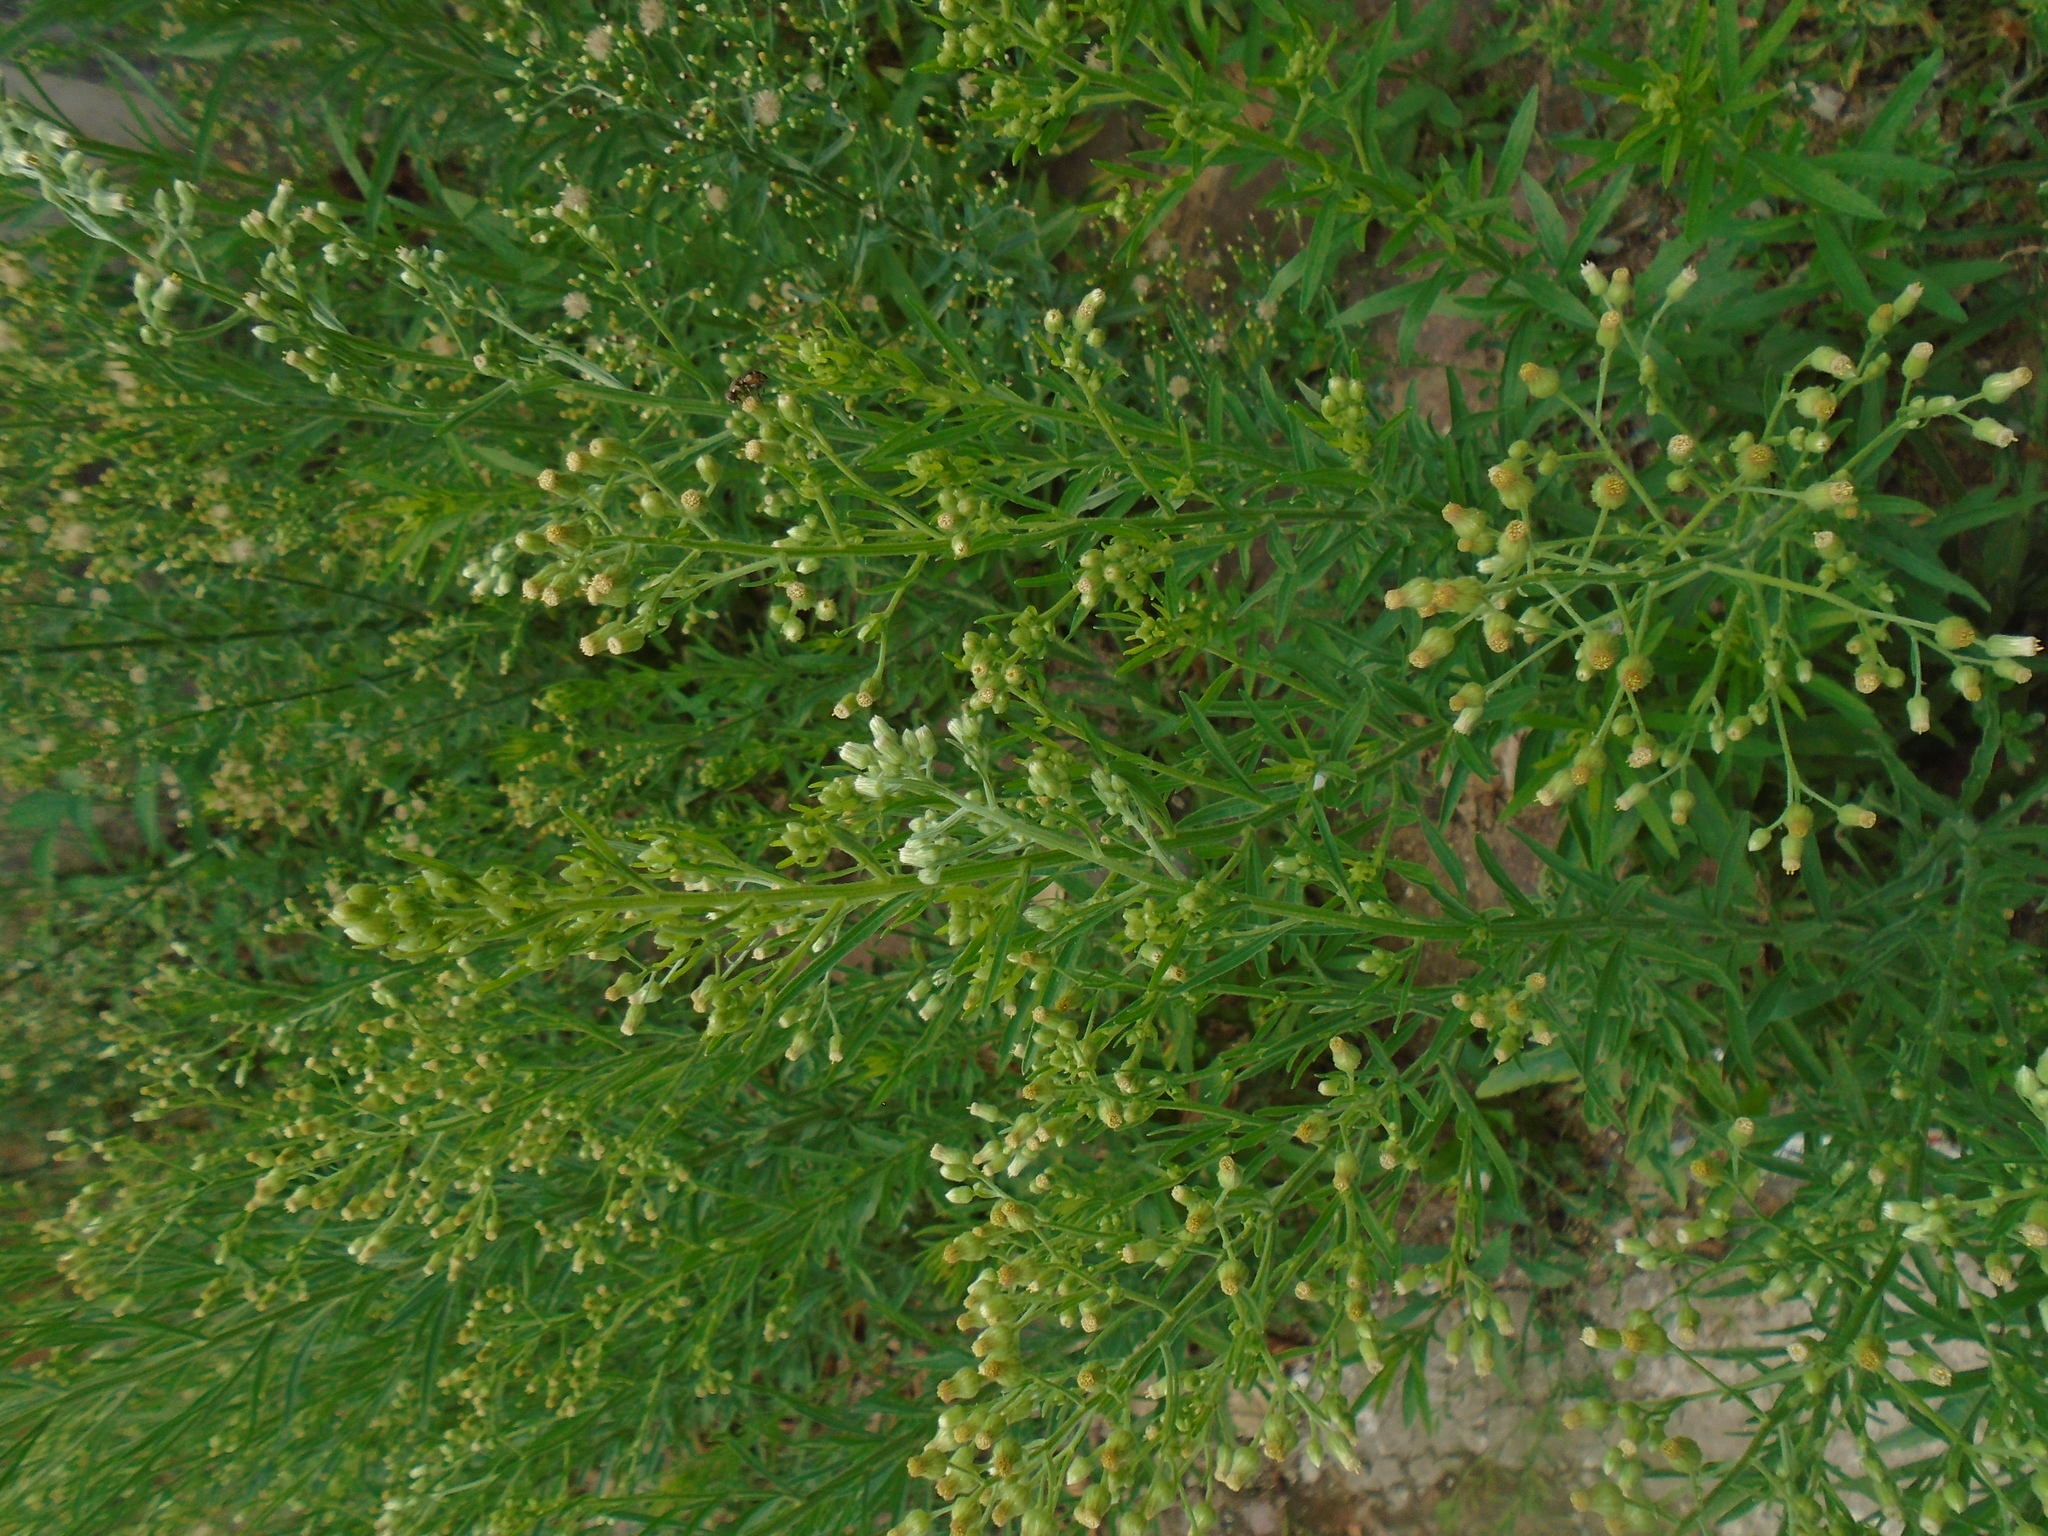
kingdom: Plantae
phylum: Tracheophyta
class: Magnoliopsida
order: Asterales
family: Asteraceae
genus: Erigeron
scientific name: Erigeron sumatrensis
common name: Daisy
